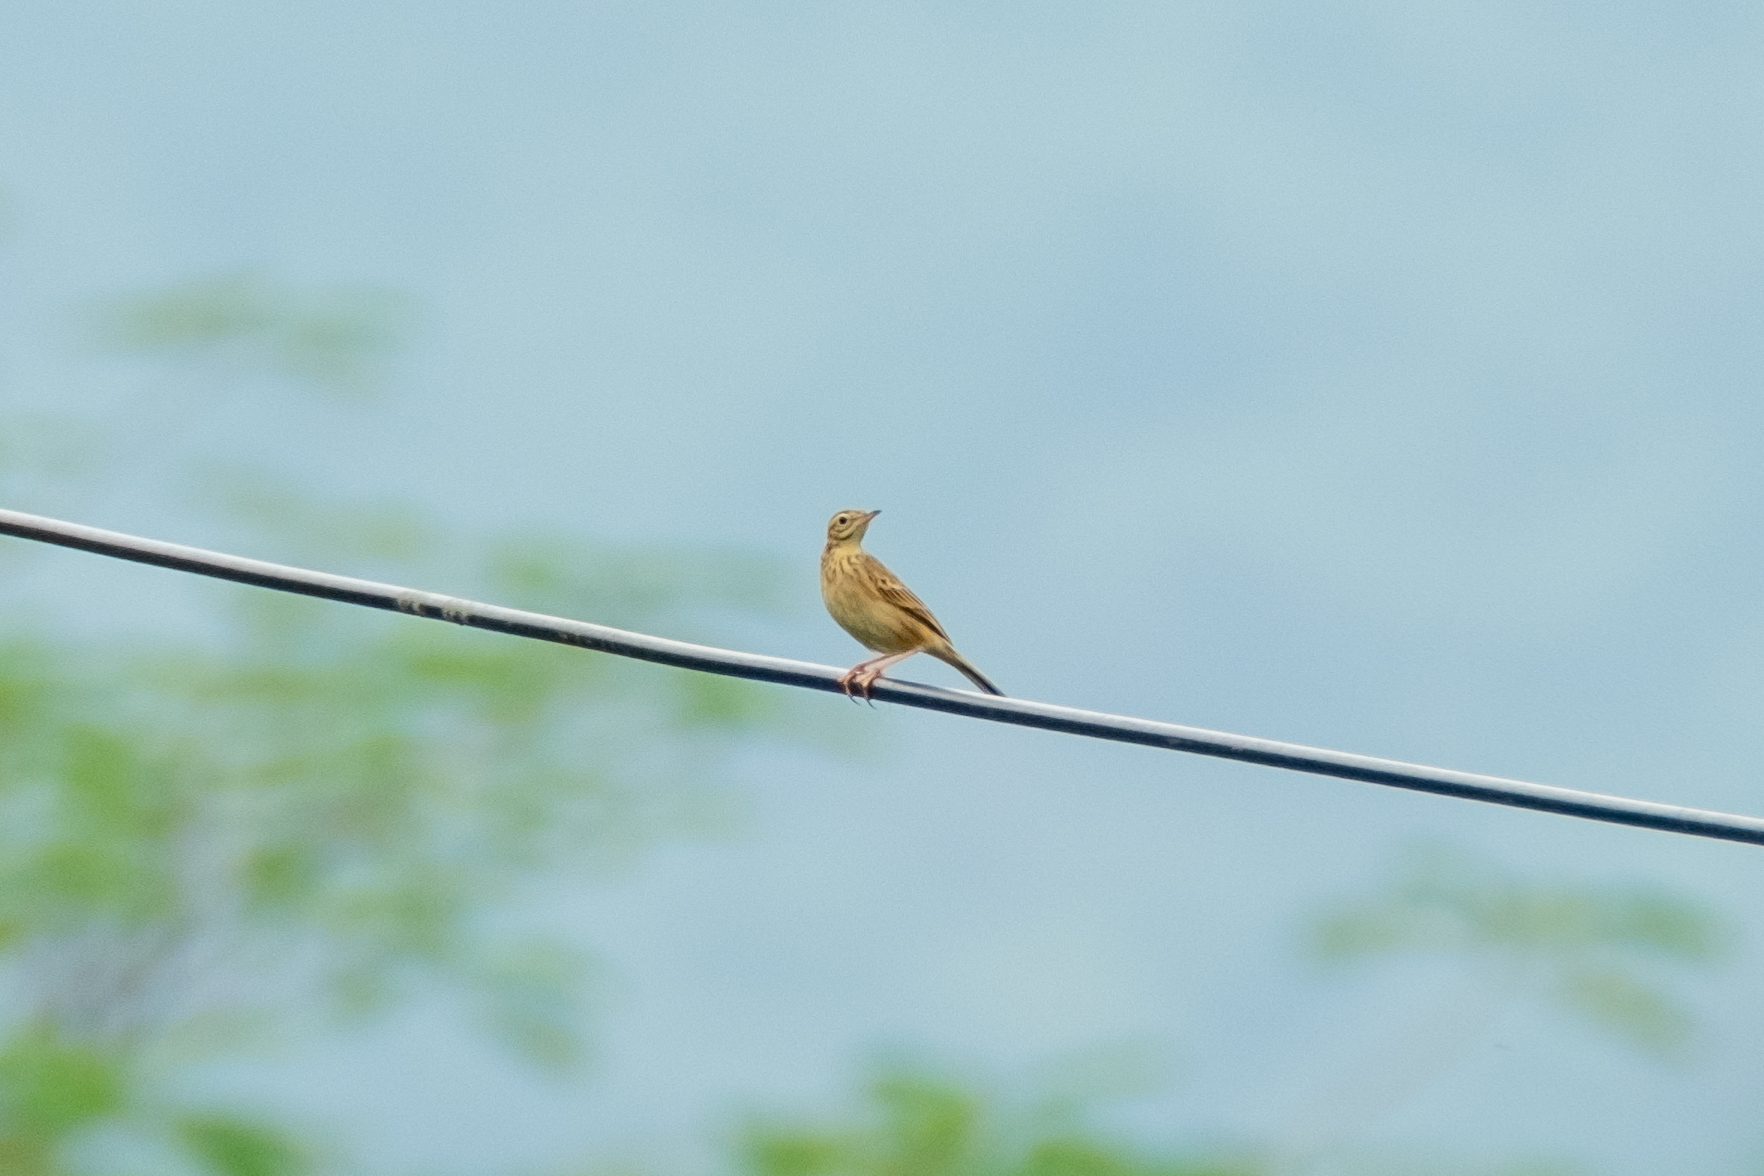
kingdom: Animalia
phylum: Chordata
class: Aves
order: Passeriformes
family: Motacillidae
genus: Anthus
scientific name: Anthus rufulus
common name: Paddyfield pipit
